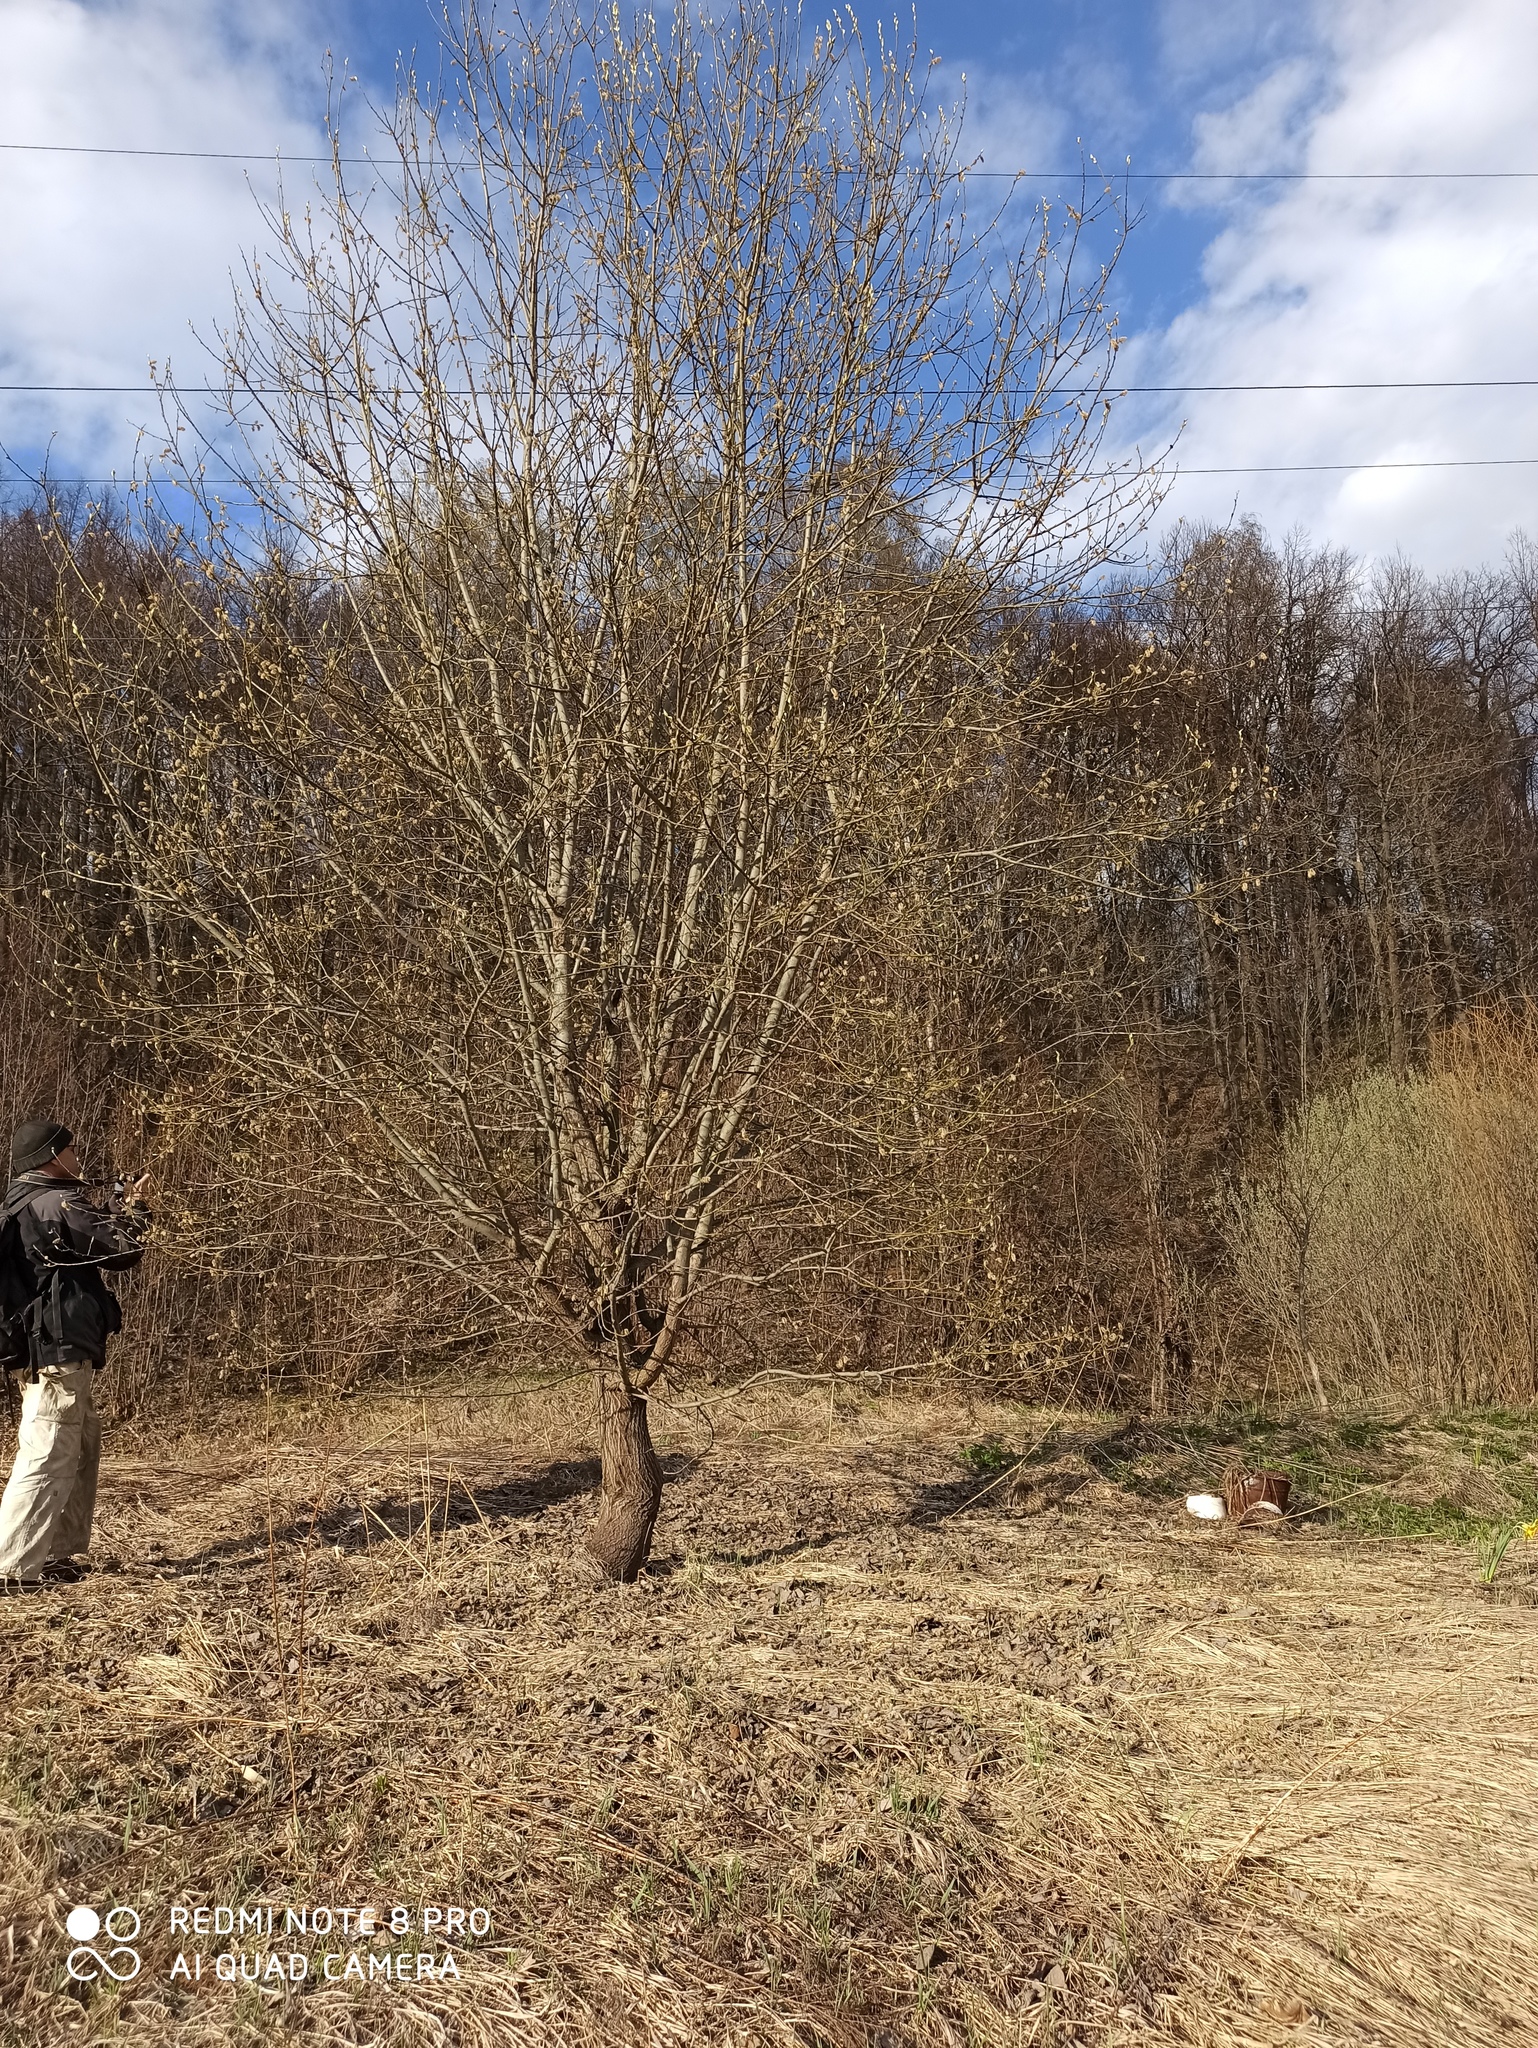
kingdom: Plantae
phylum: Tracheophyta
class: Magnoliopsida
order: Malpighiales
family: Salicaceae
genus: Salix
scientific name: Salix caprea
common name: Goat willow
